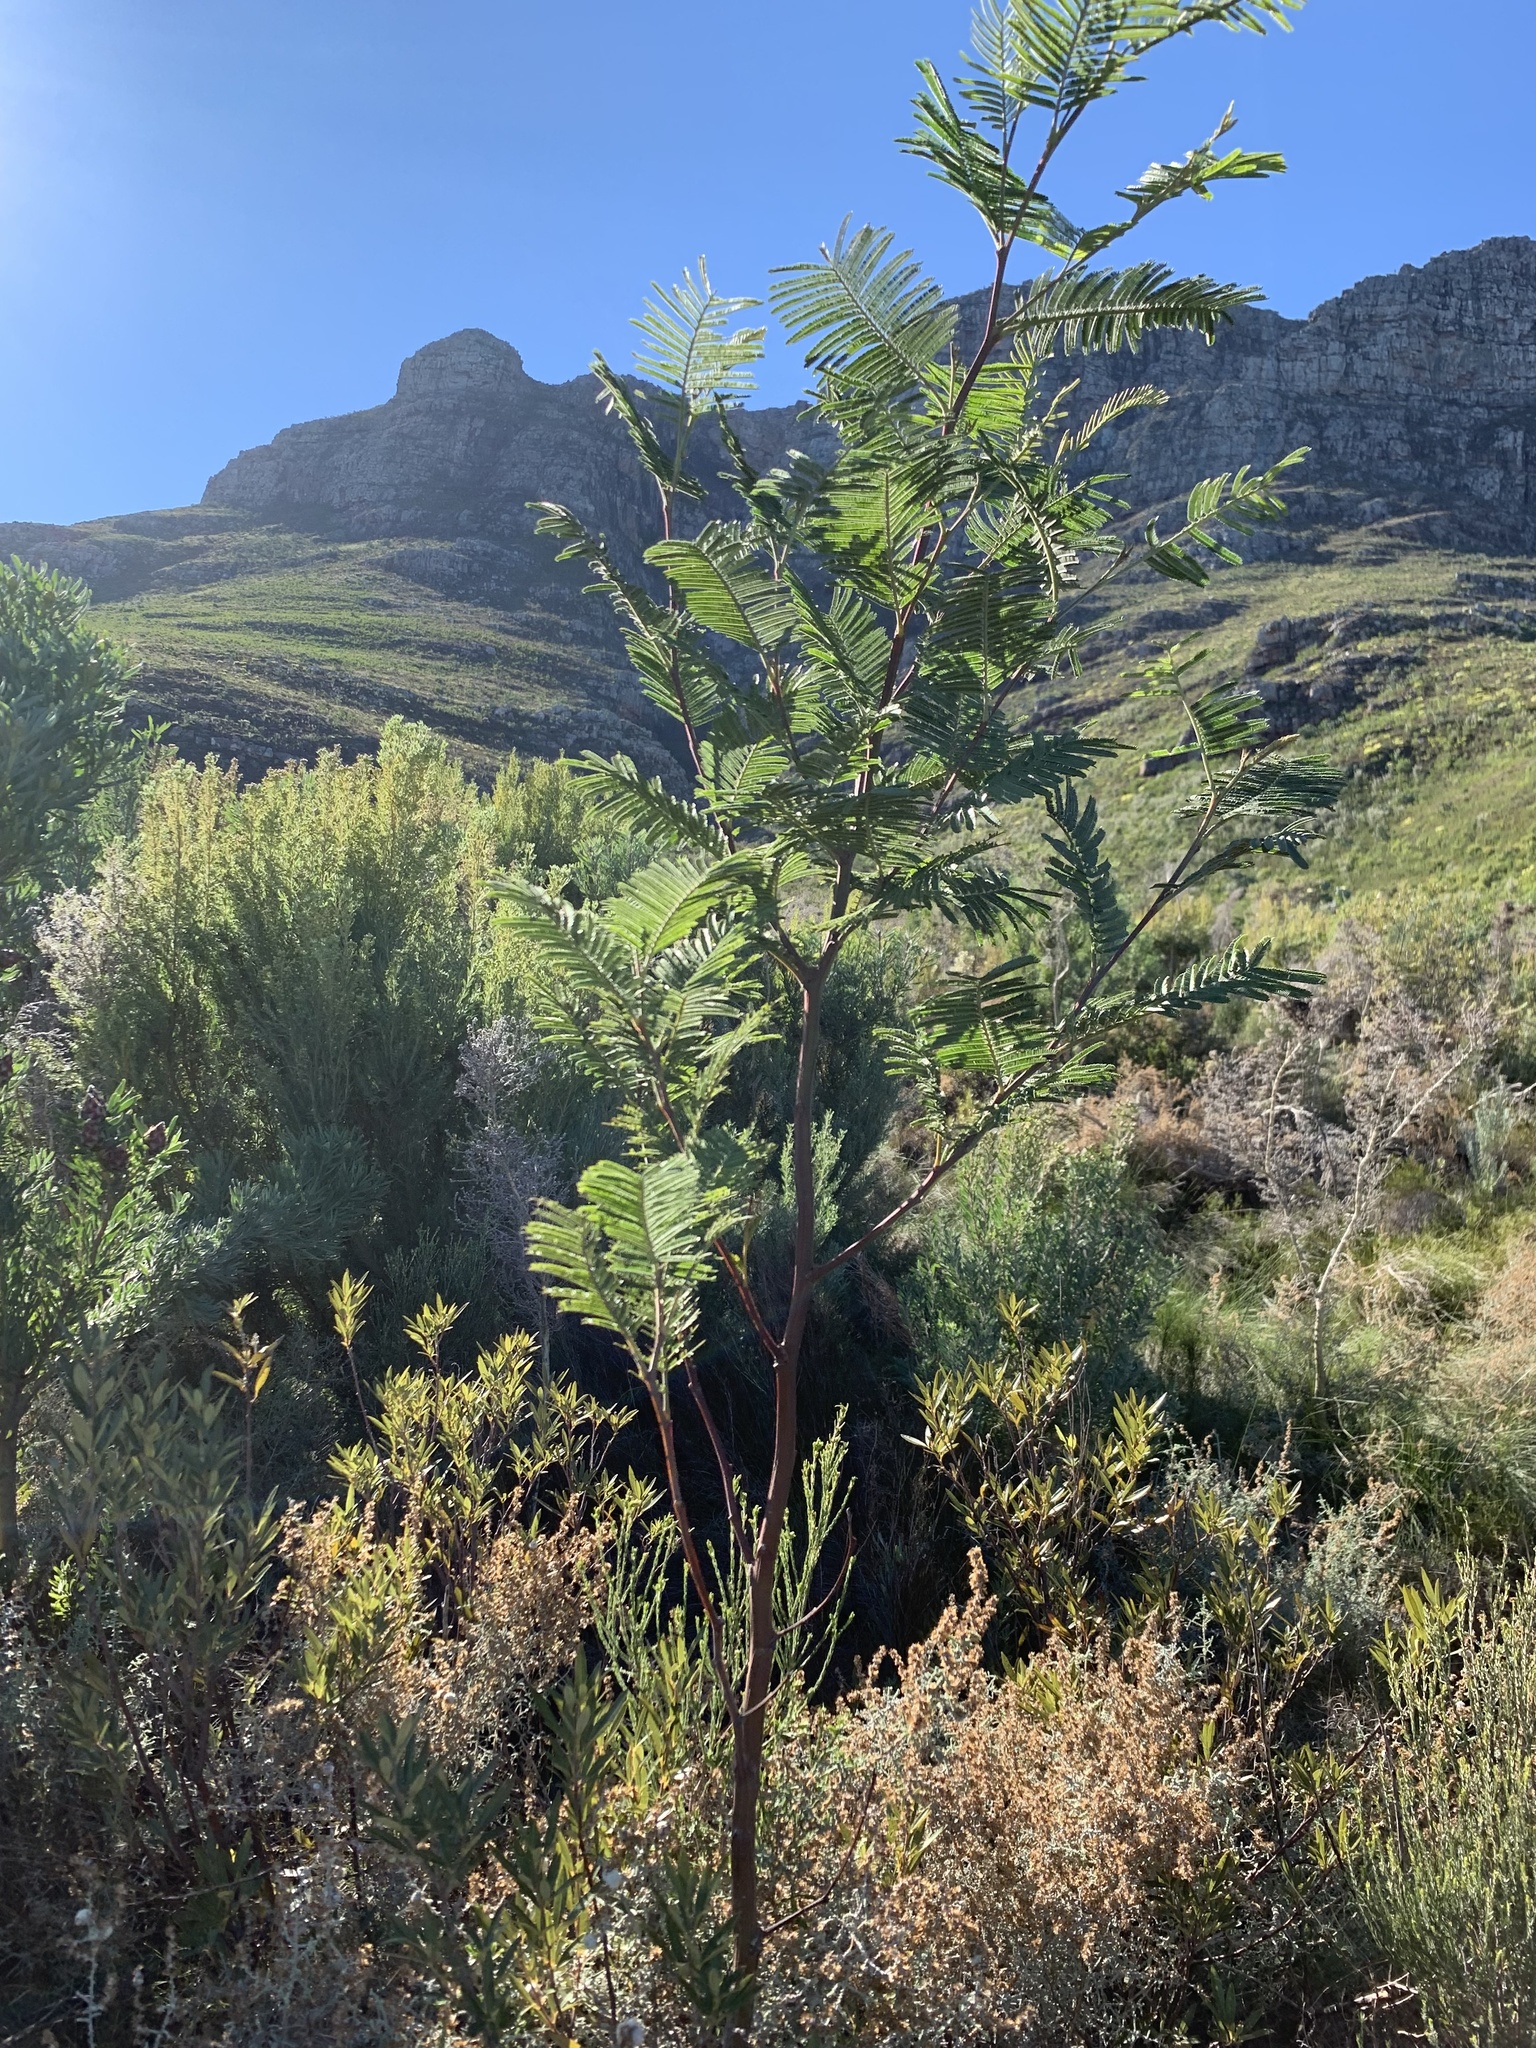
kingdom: Plantae
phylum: Tracheophyta
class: Magnoliopsida
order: Fabales
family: Fabaceae
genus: Acacia
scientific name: Acacia mearnsii
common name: Black wattle
